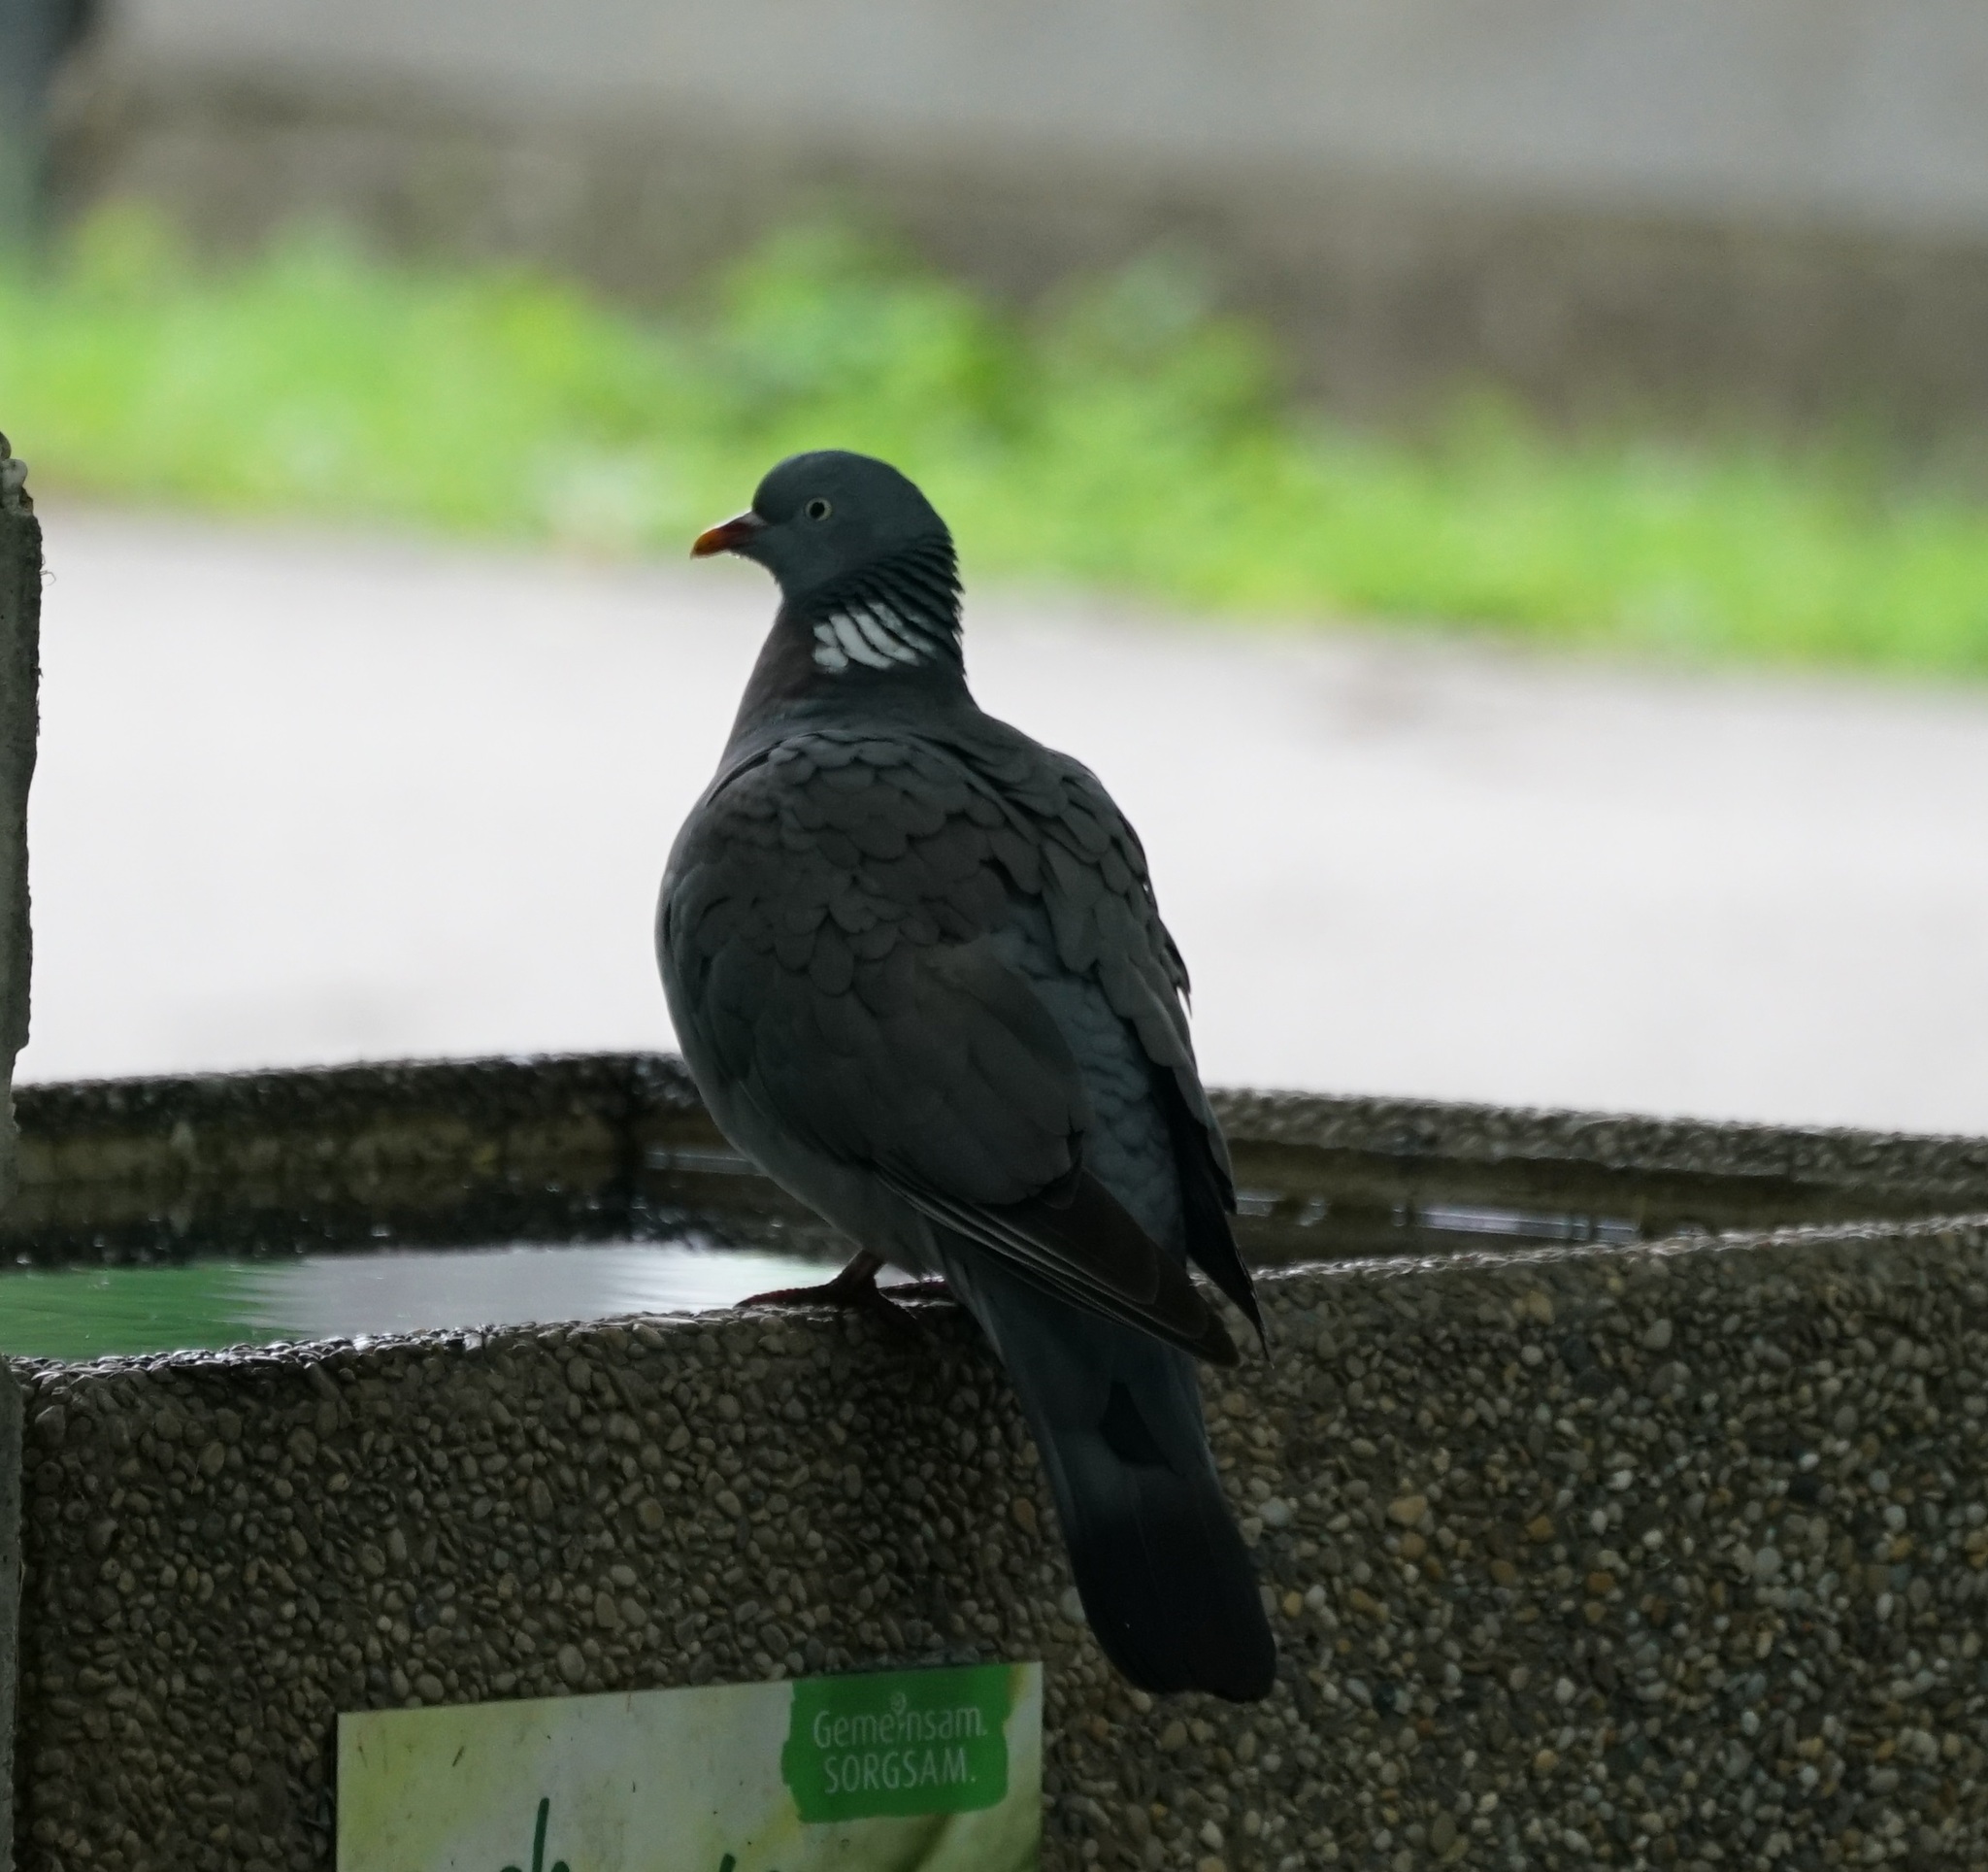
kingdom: Animalia
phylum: Chordata
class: Aves
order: Columbiformes
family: Columbidae
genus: Columba
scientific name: Columba palumbus
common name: Common wood pigeon
